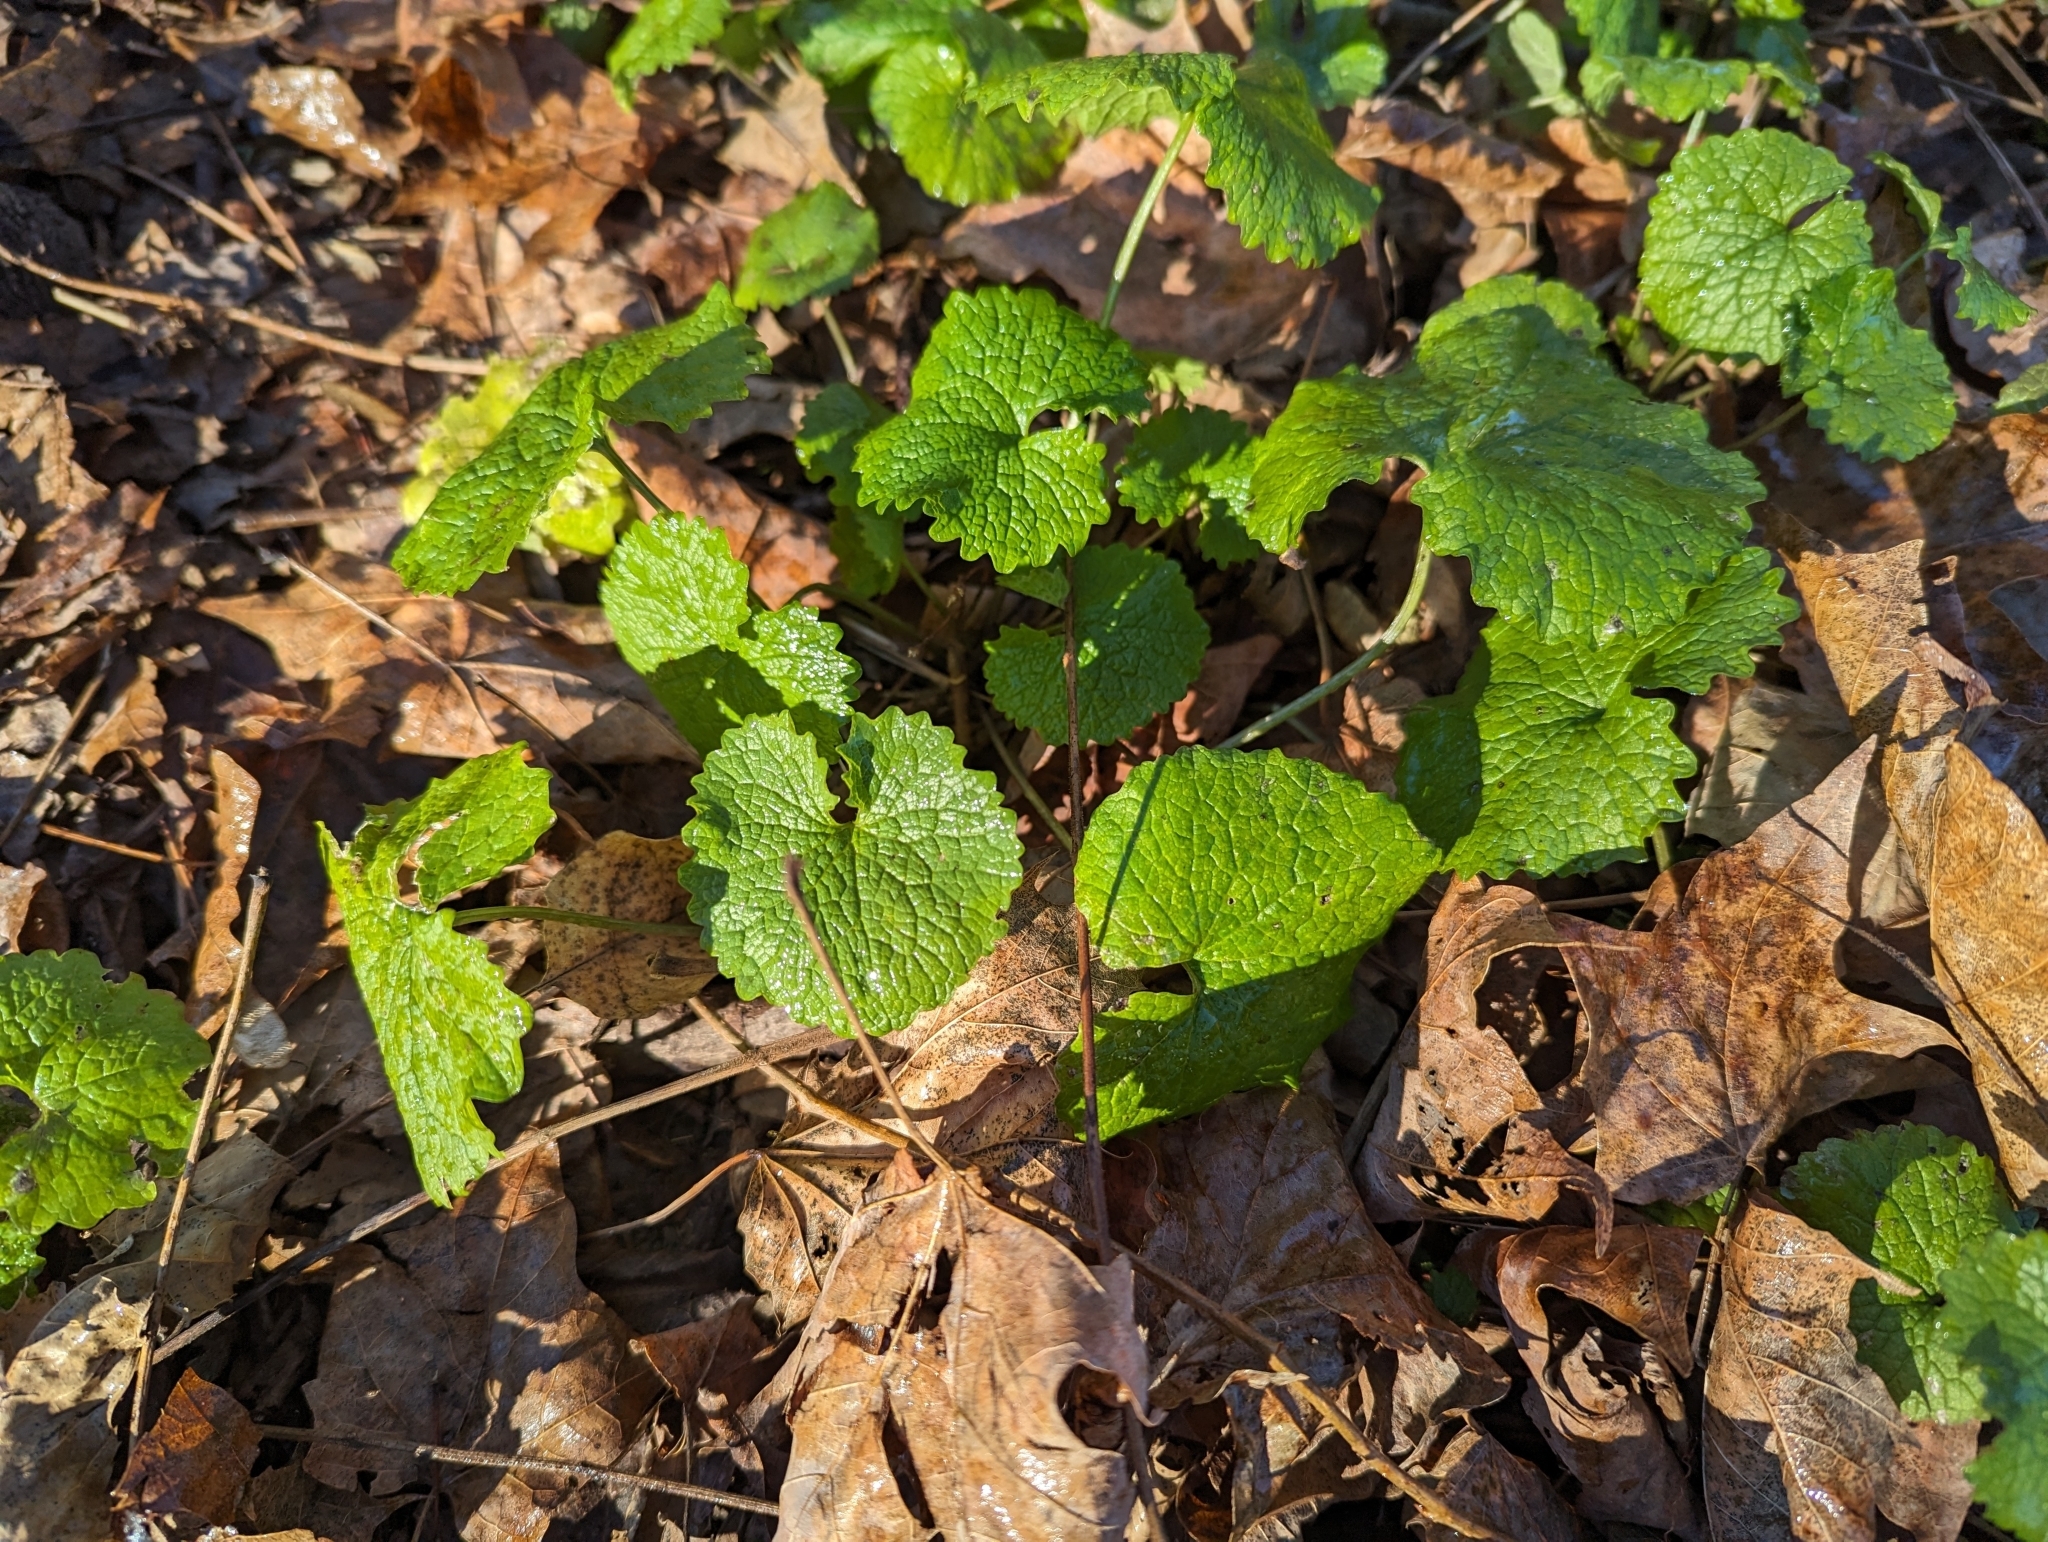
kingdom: Plantae
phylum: Tracheophyta
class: Magnoliopsida
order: Brassicales
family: Brassicaceae
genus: Alliaria
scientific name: Alliaria petiolata
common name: Garlic mustard
